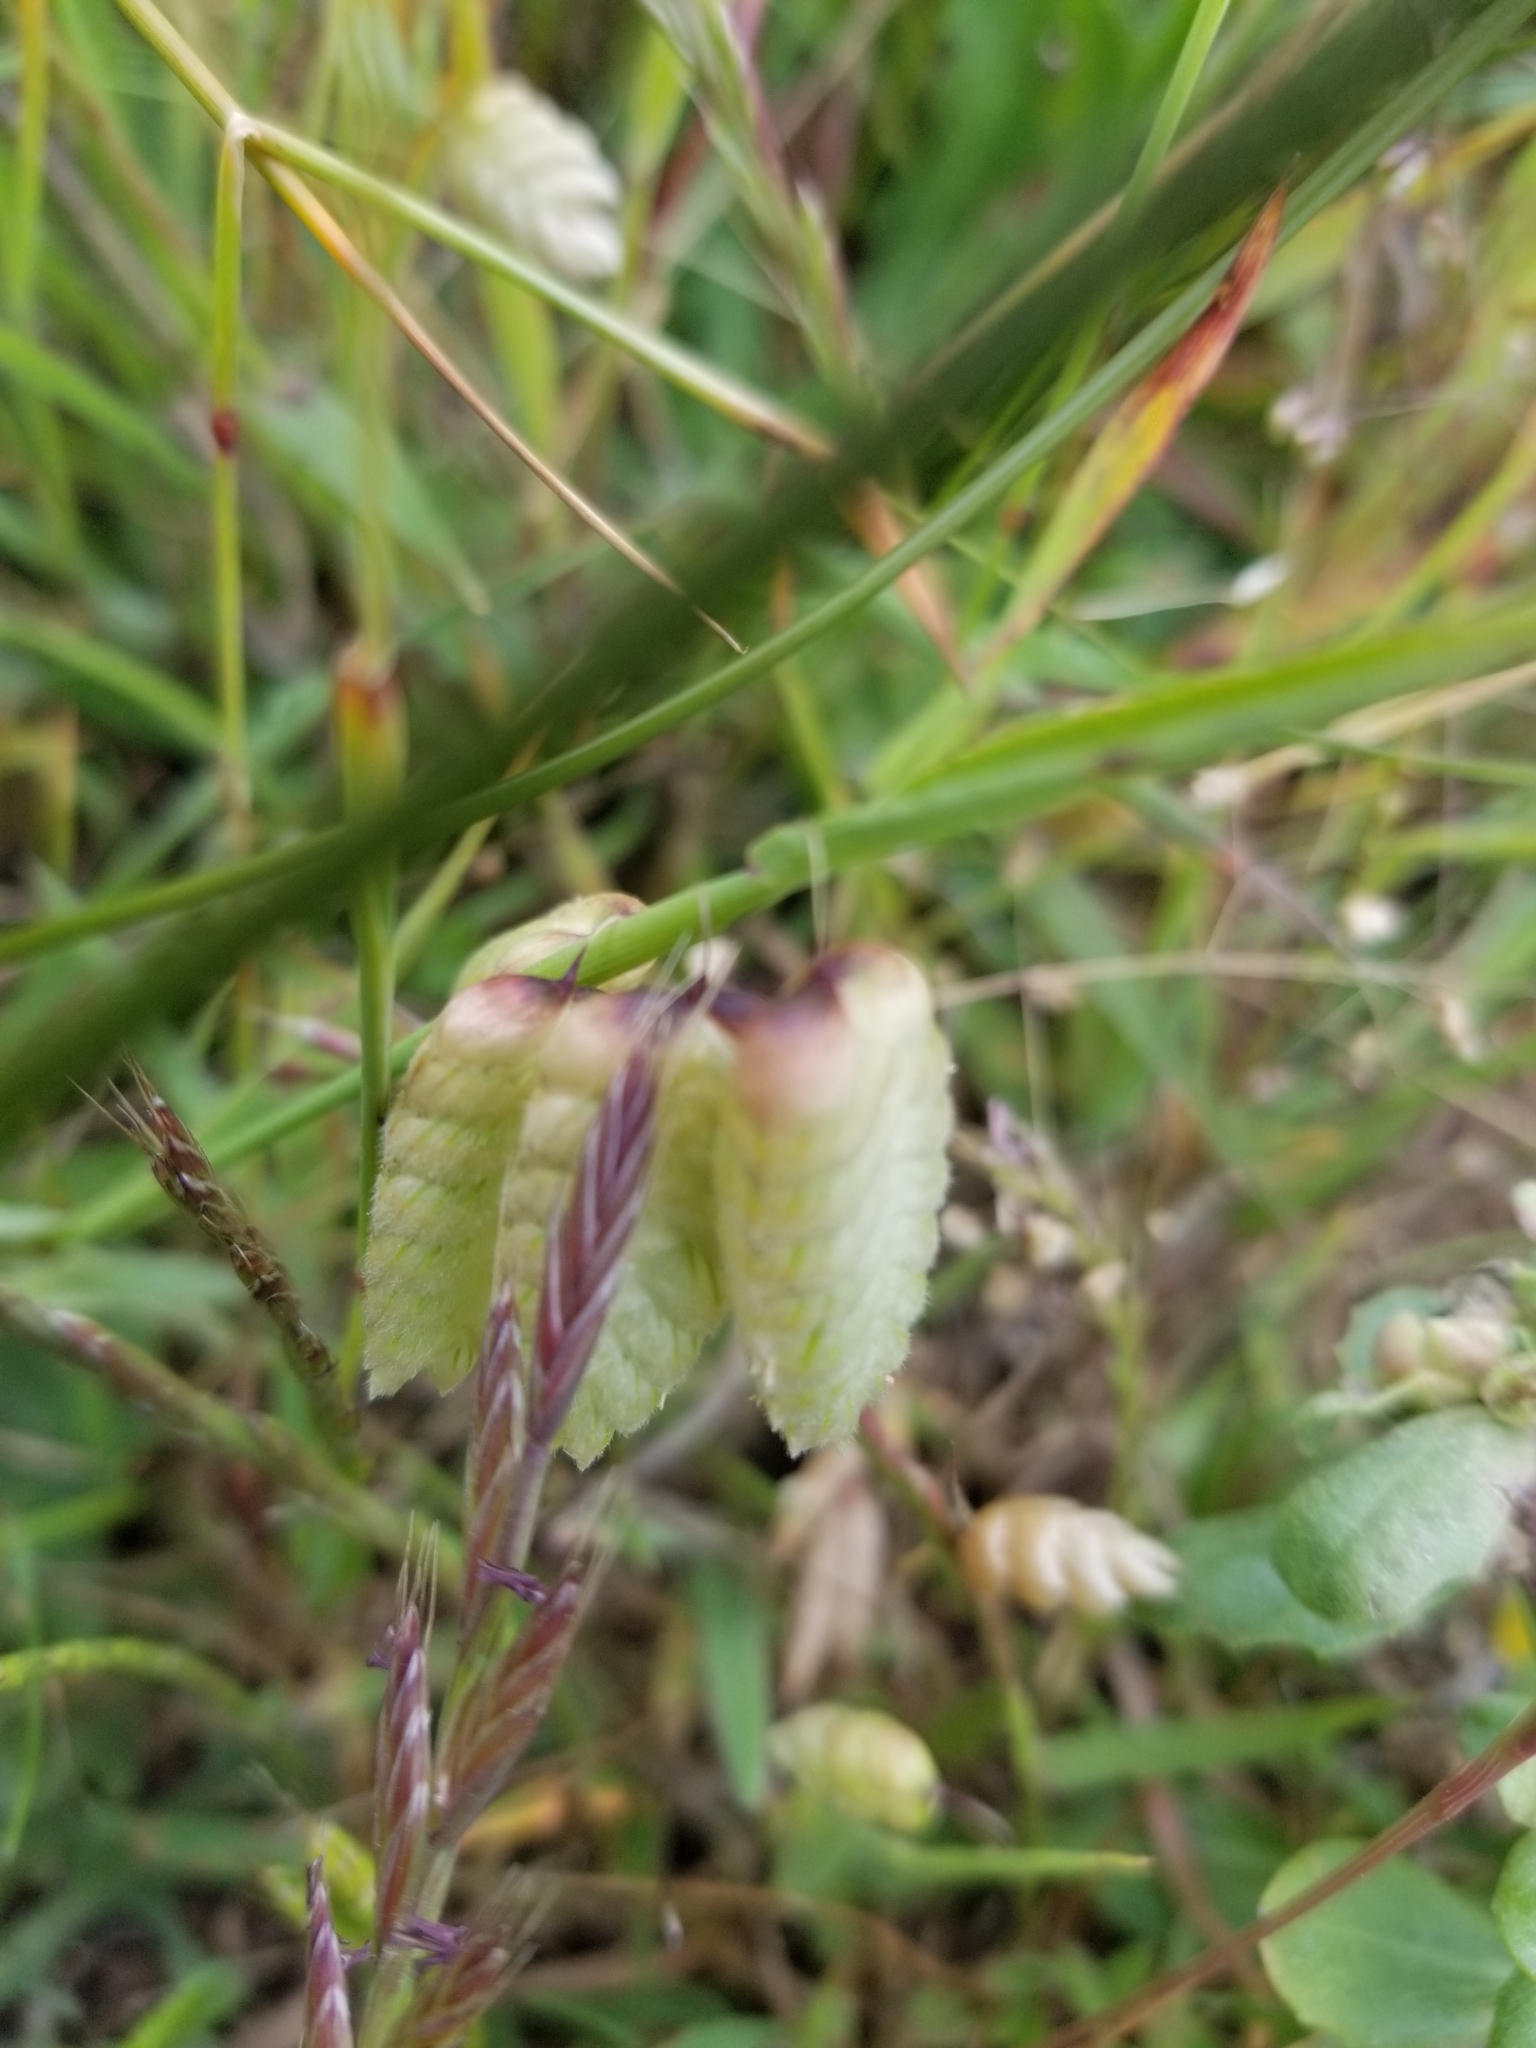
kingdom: Plantae
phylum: Tracheophyta
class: Liliopsida
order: Poales
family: Poaceae
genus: Briza
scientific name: Briza maxima
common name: Big quakinggrass
